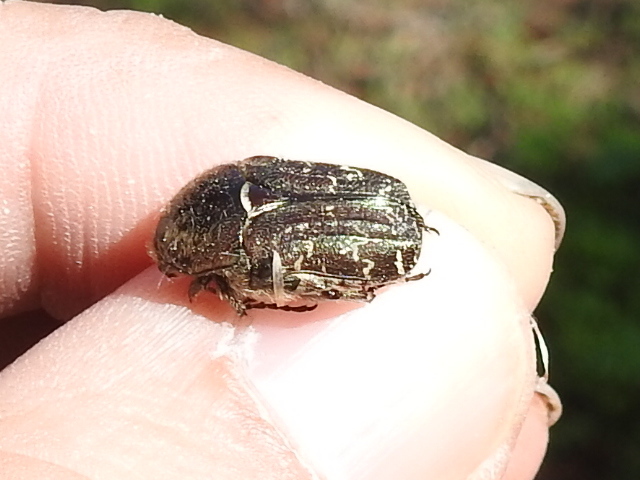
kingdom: Animalia
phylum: Arthropoda
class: Insecta
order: Coleoptera
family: Scarabaeidae
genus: Euphoria
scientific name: Euphoria sepulcralis
